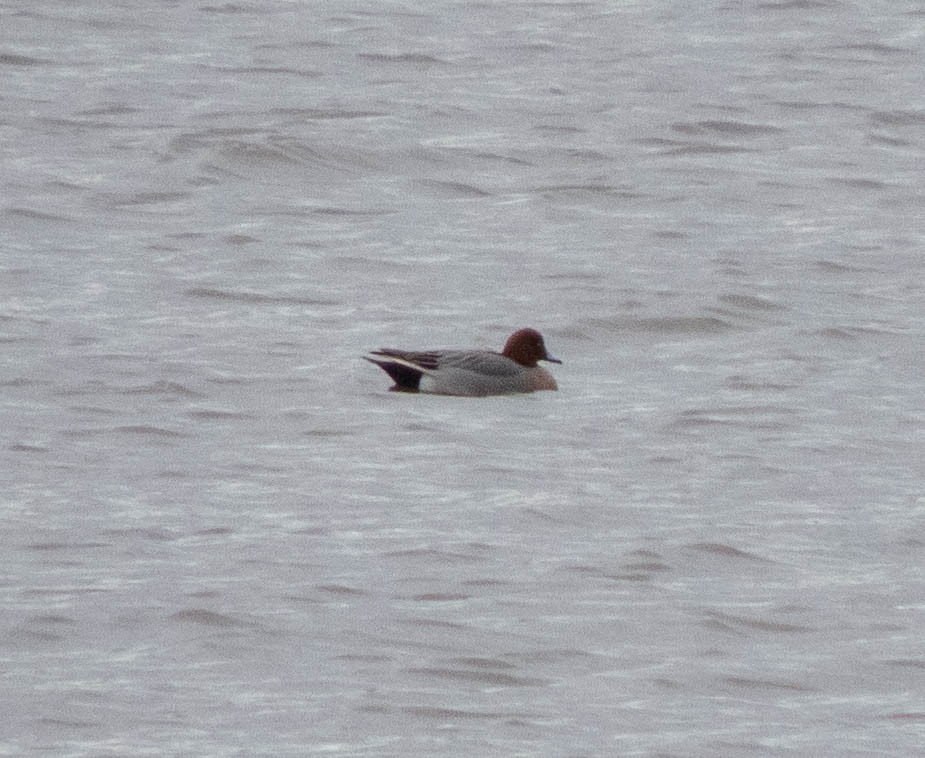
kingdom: Animalia
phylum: Chordata
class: Aves
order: Anseriformes
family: Anatidae
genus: Mareca
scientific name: Mareca penelope
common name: Eurasian wigeon
